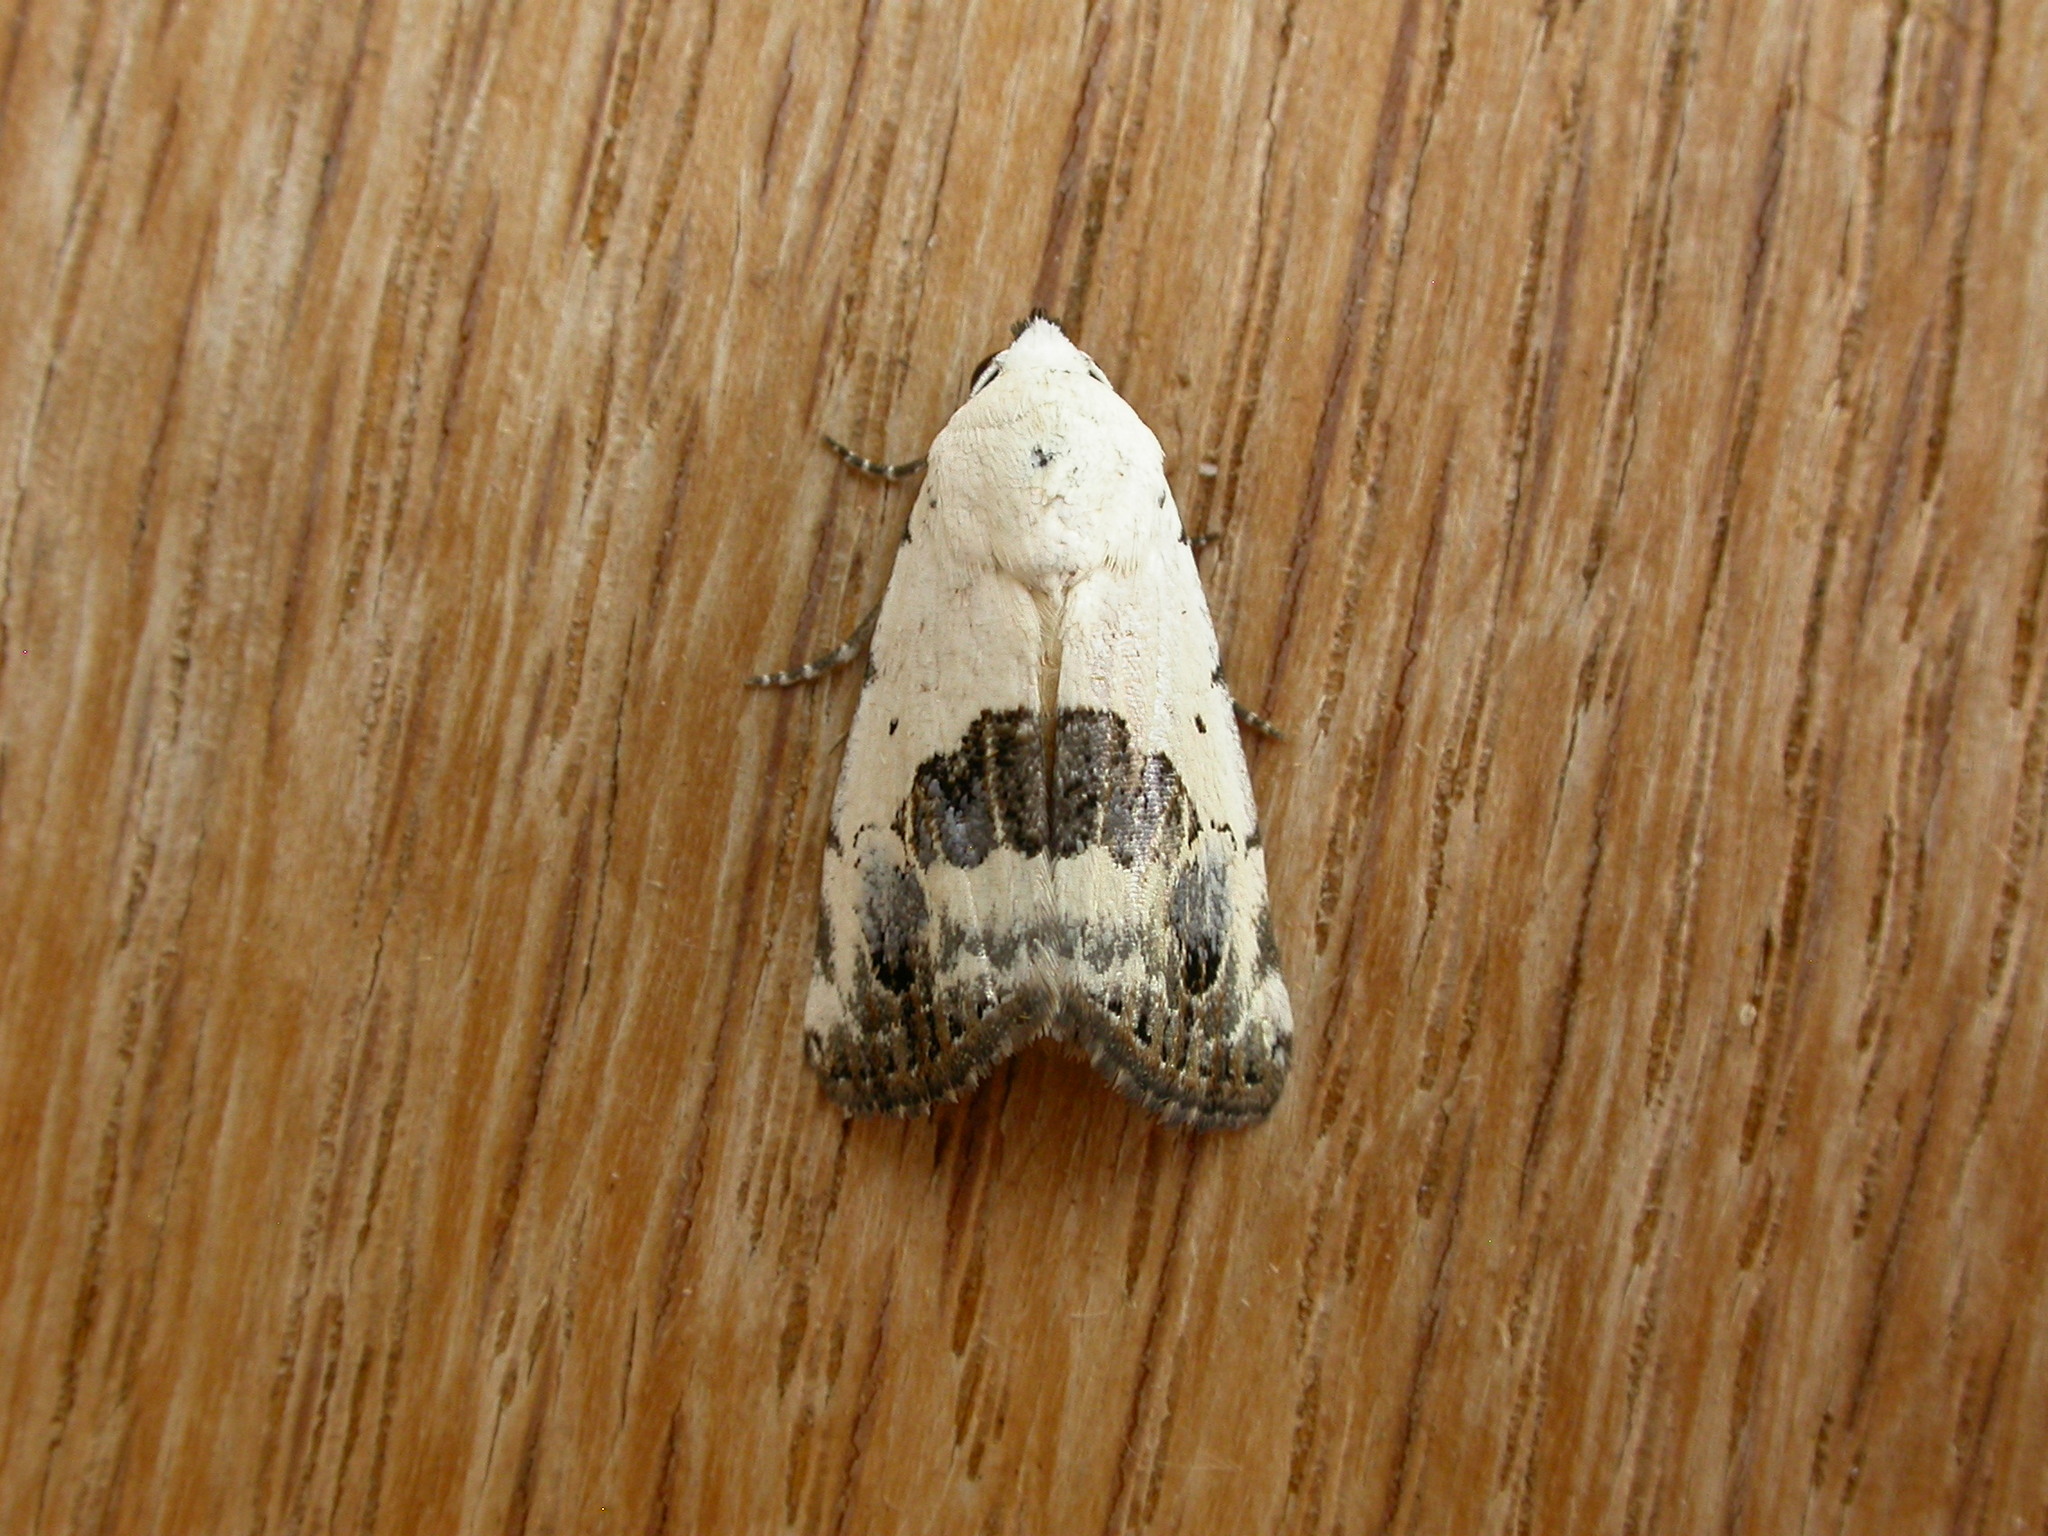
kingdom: Animalia
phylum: Arthropoda
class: Insecta
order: Lepidoptera
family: Nolidae
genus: Armactica
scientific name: Armactica conchidia
